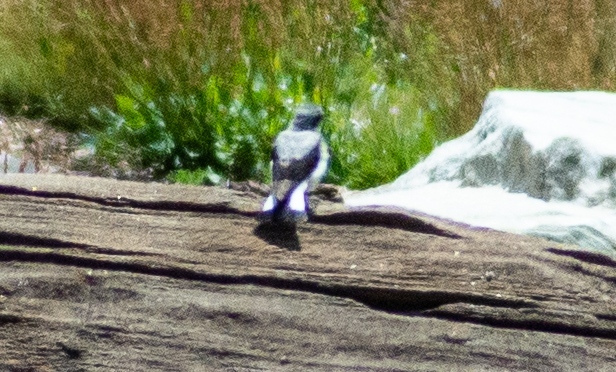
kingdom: Animalia
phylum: Chordata
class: Aves
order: Passeriformes
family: Muscicapidae
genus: Oenanthe
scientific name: Oenanthe oenanthe
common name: Northern wheatear
